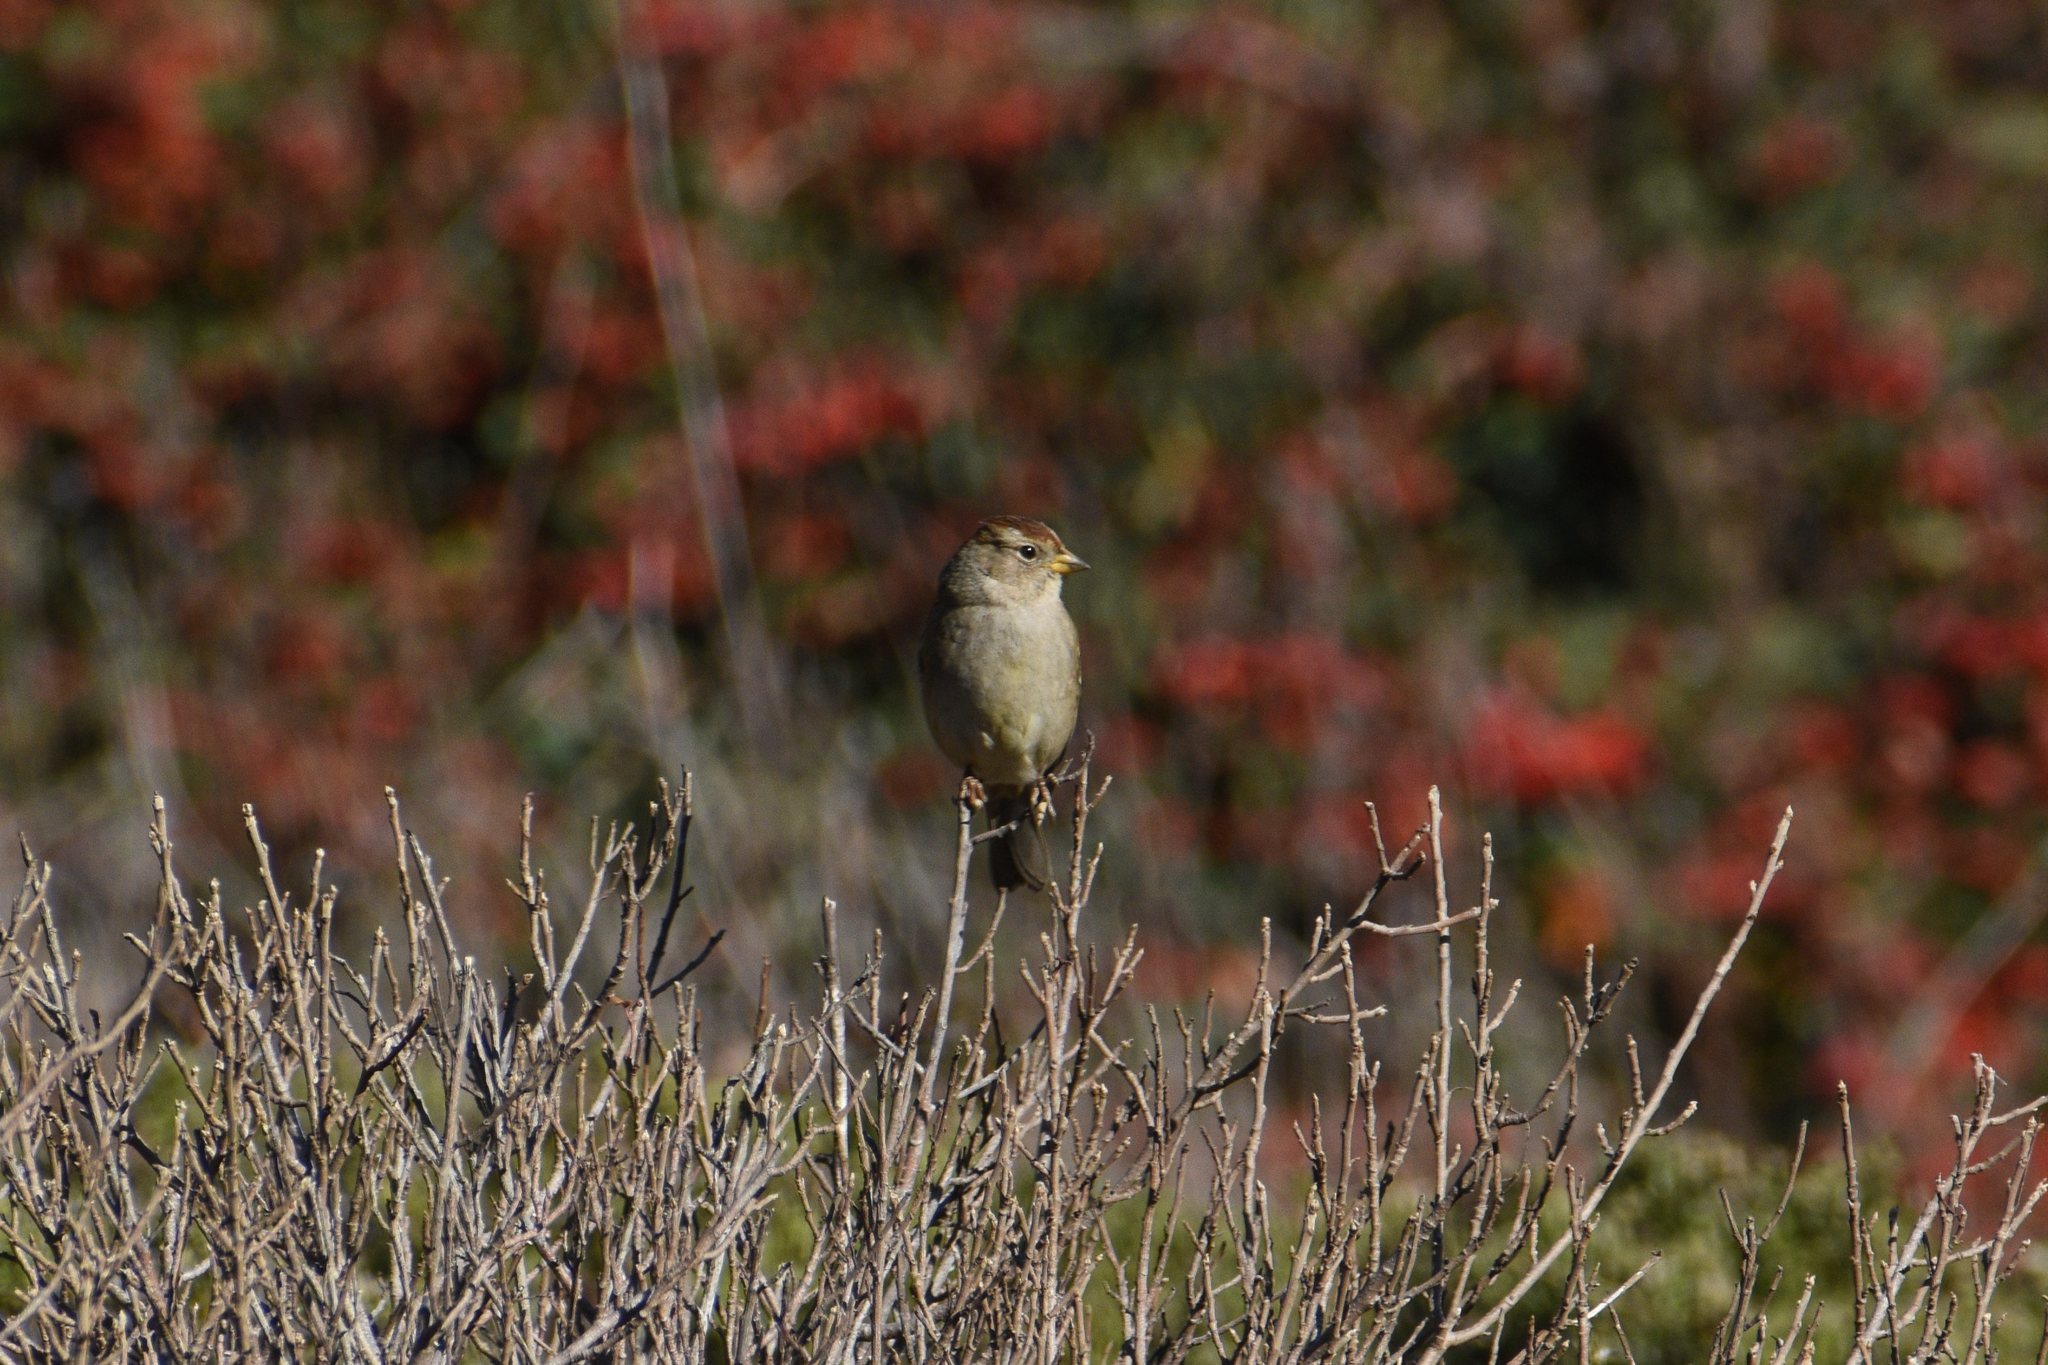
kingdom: Animalia
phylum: Chordata
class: Aves
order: Passeriformes
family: Passerellidae
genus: Zonotrichia
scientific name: Zonotrichia leucophrys
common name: White-crowned sparrow
